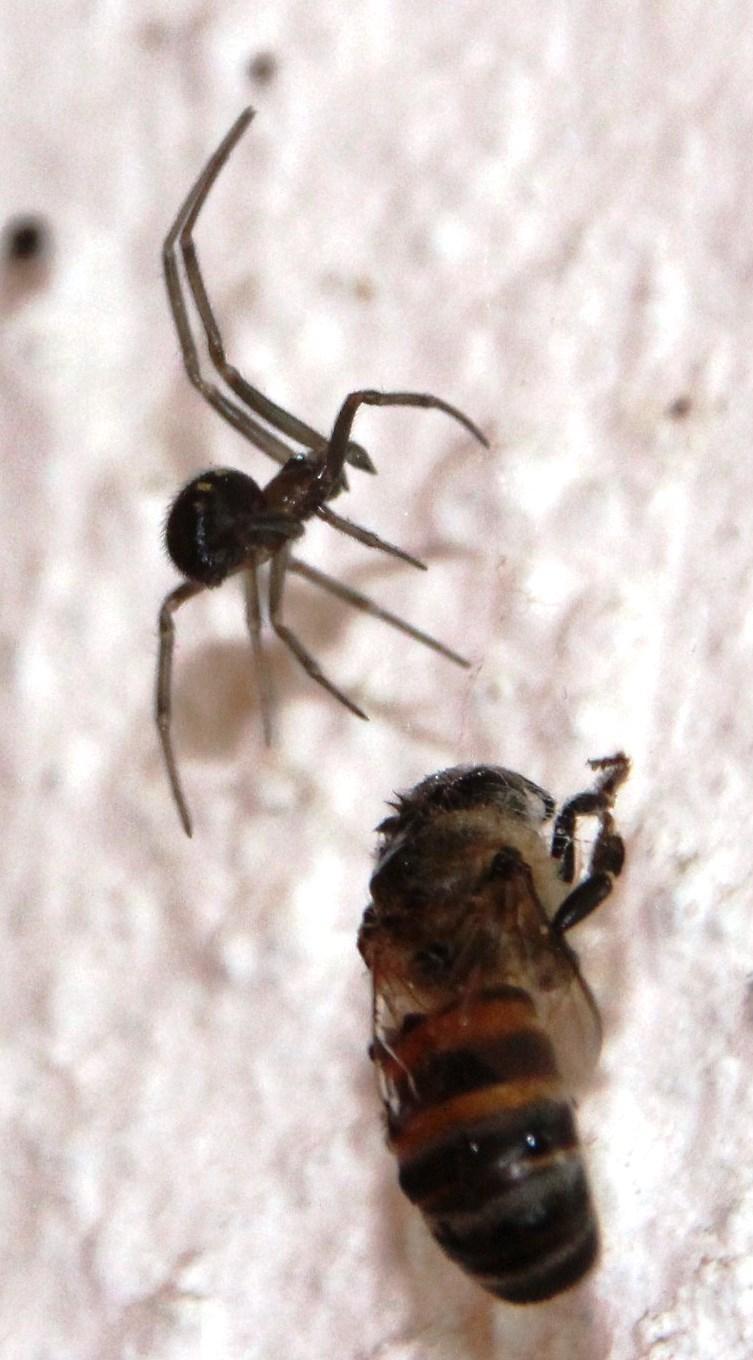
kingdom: Animalia
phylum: Arthropoda
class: Insecta
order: Hymenoptera
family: Apidae
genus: Apis
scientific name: Apis mellifera
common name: Honey bee
